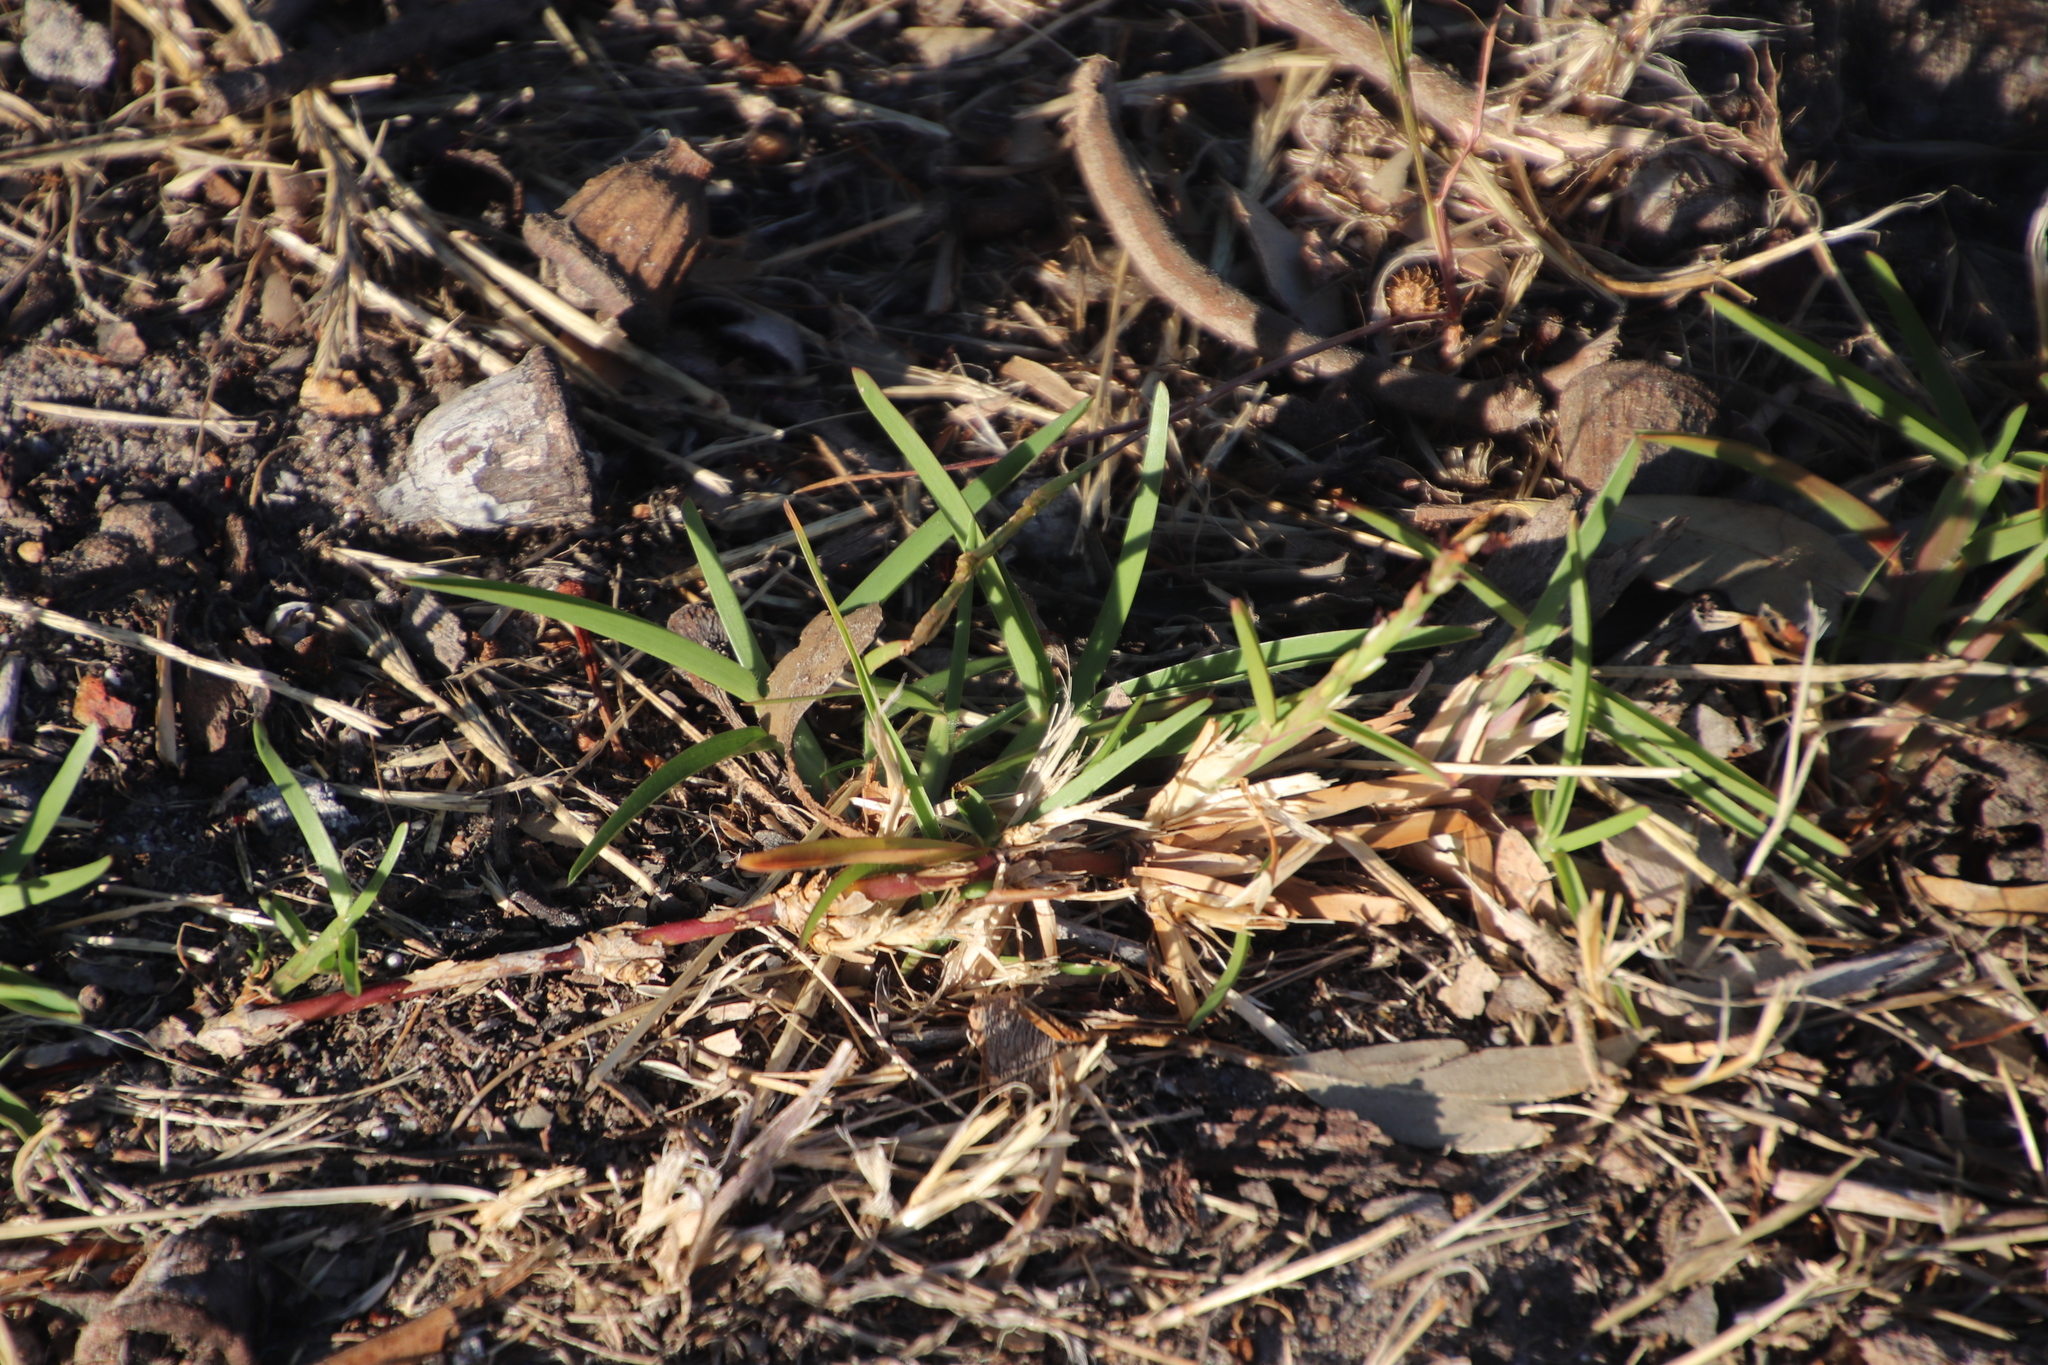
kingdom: Plantae
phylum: Tracheophyta
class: Liliopsida
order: Poales
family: Poaceae
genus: Stenotaphrum
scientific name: Stenotaphrum secundatum
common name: St. augustine grass
